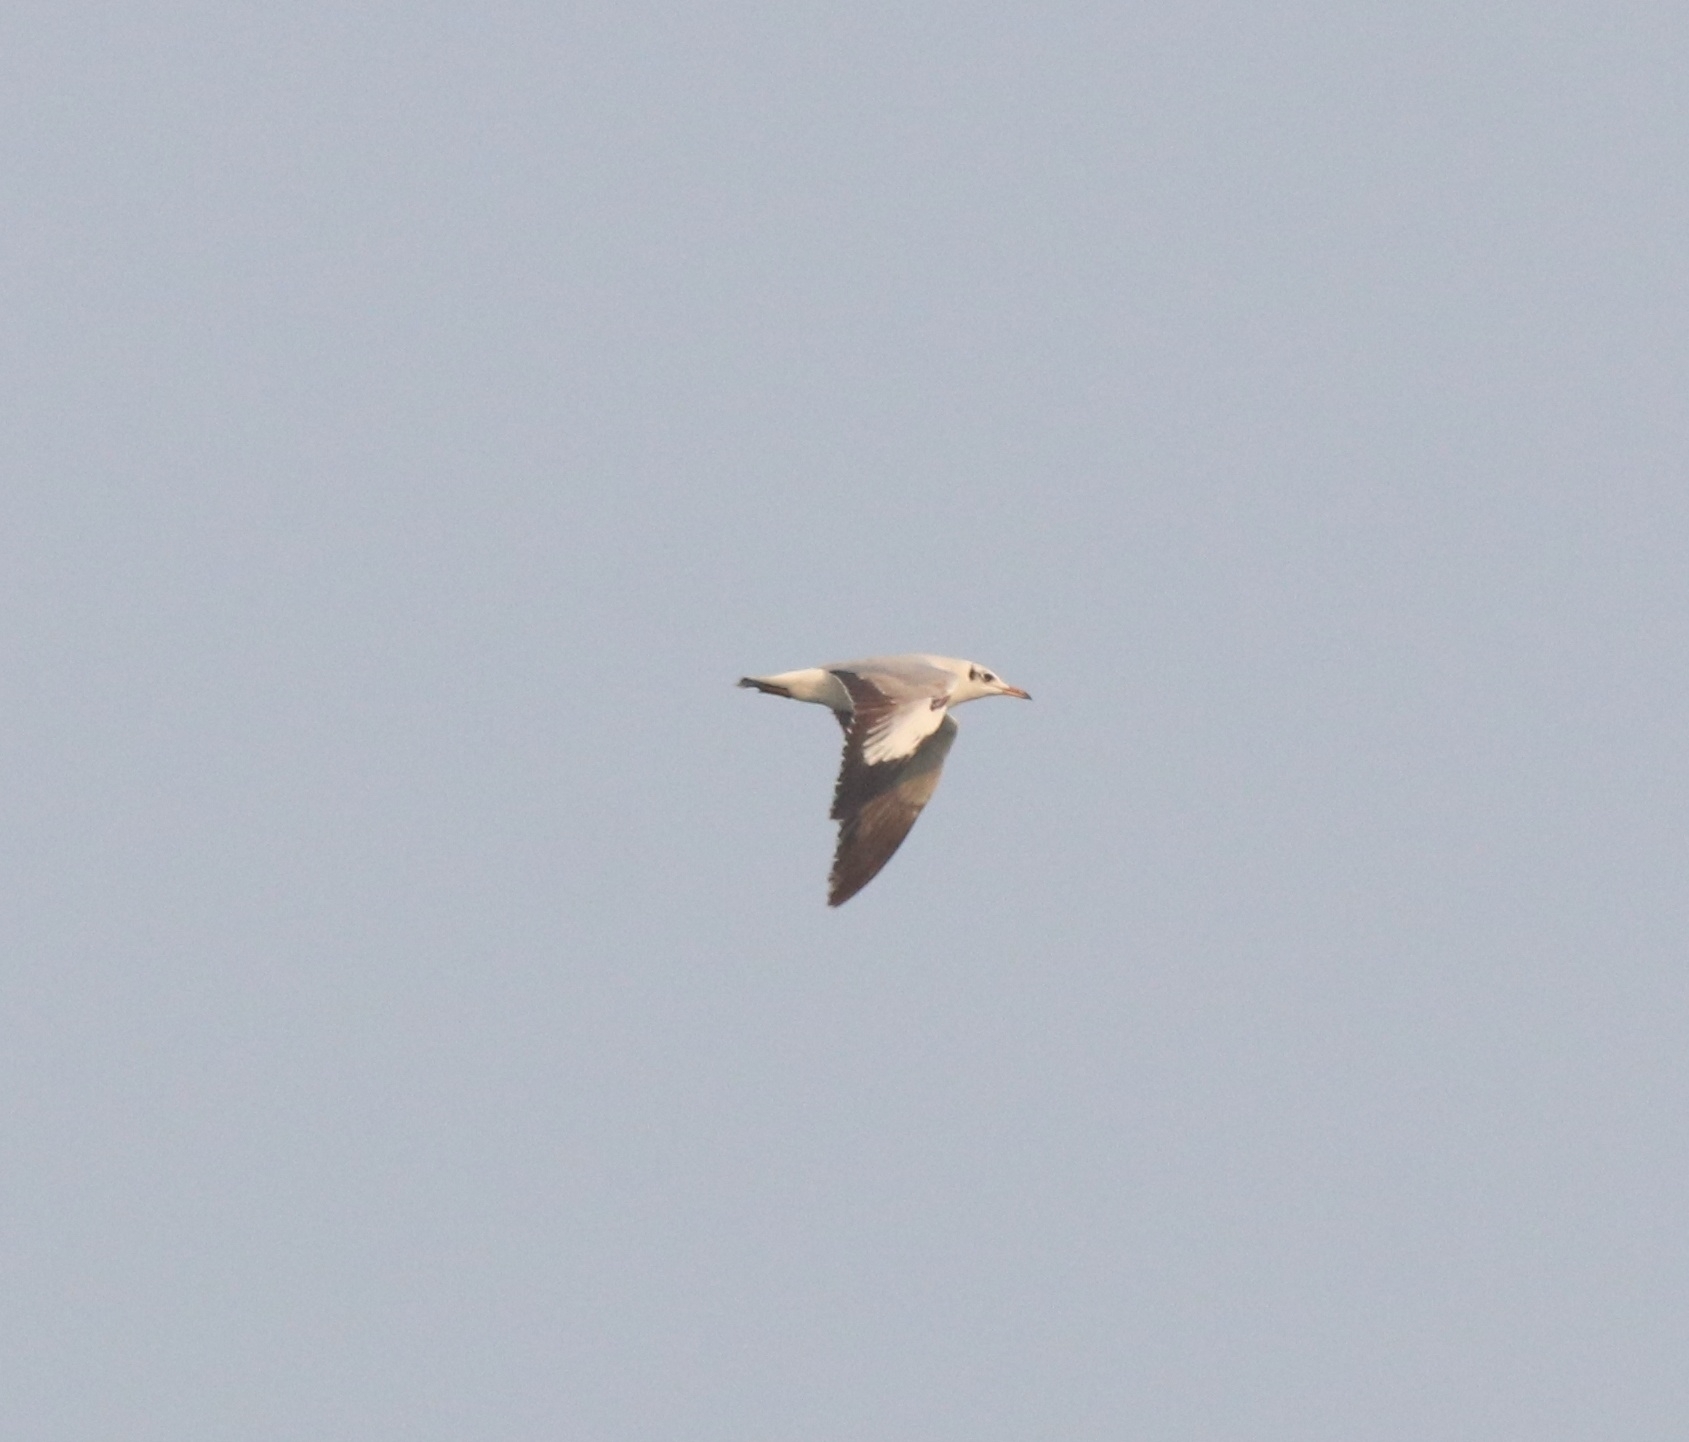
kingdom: Animalia
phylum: Chordata
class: Aves
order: Charadriiformes
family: Laridae
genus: Chroicocephalus
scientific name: Chroicocephalus ridibundus
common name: Black-headed gull
